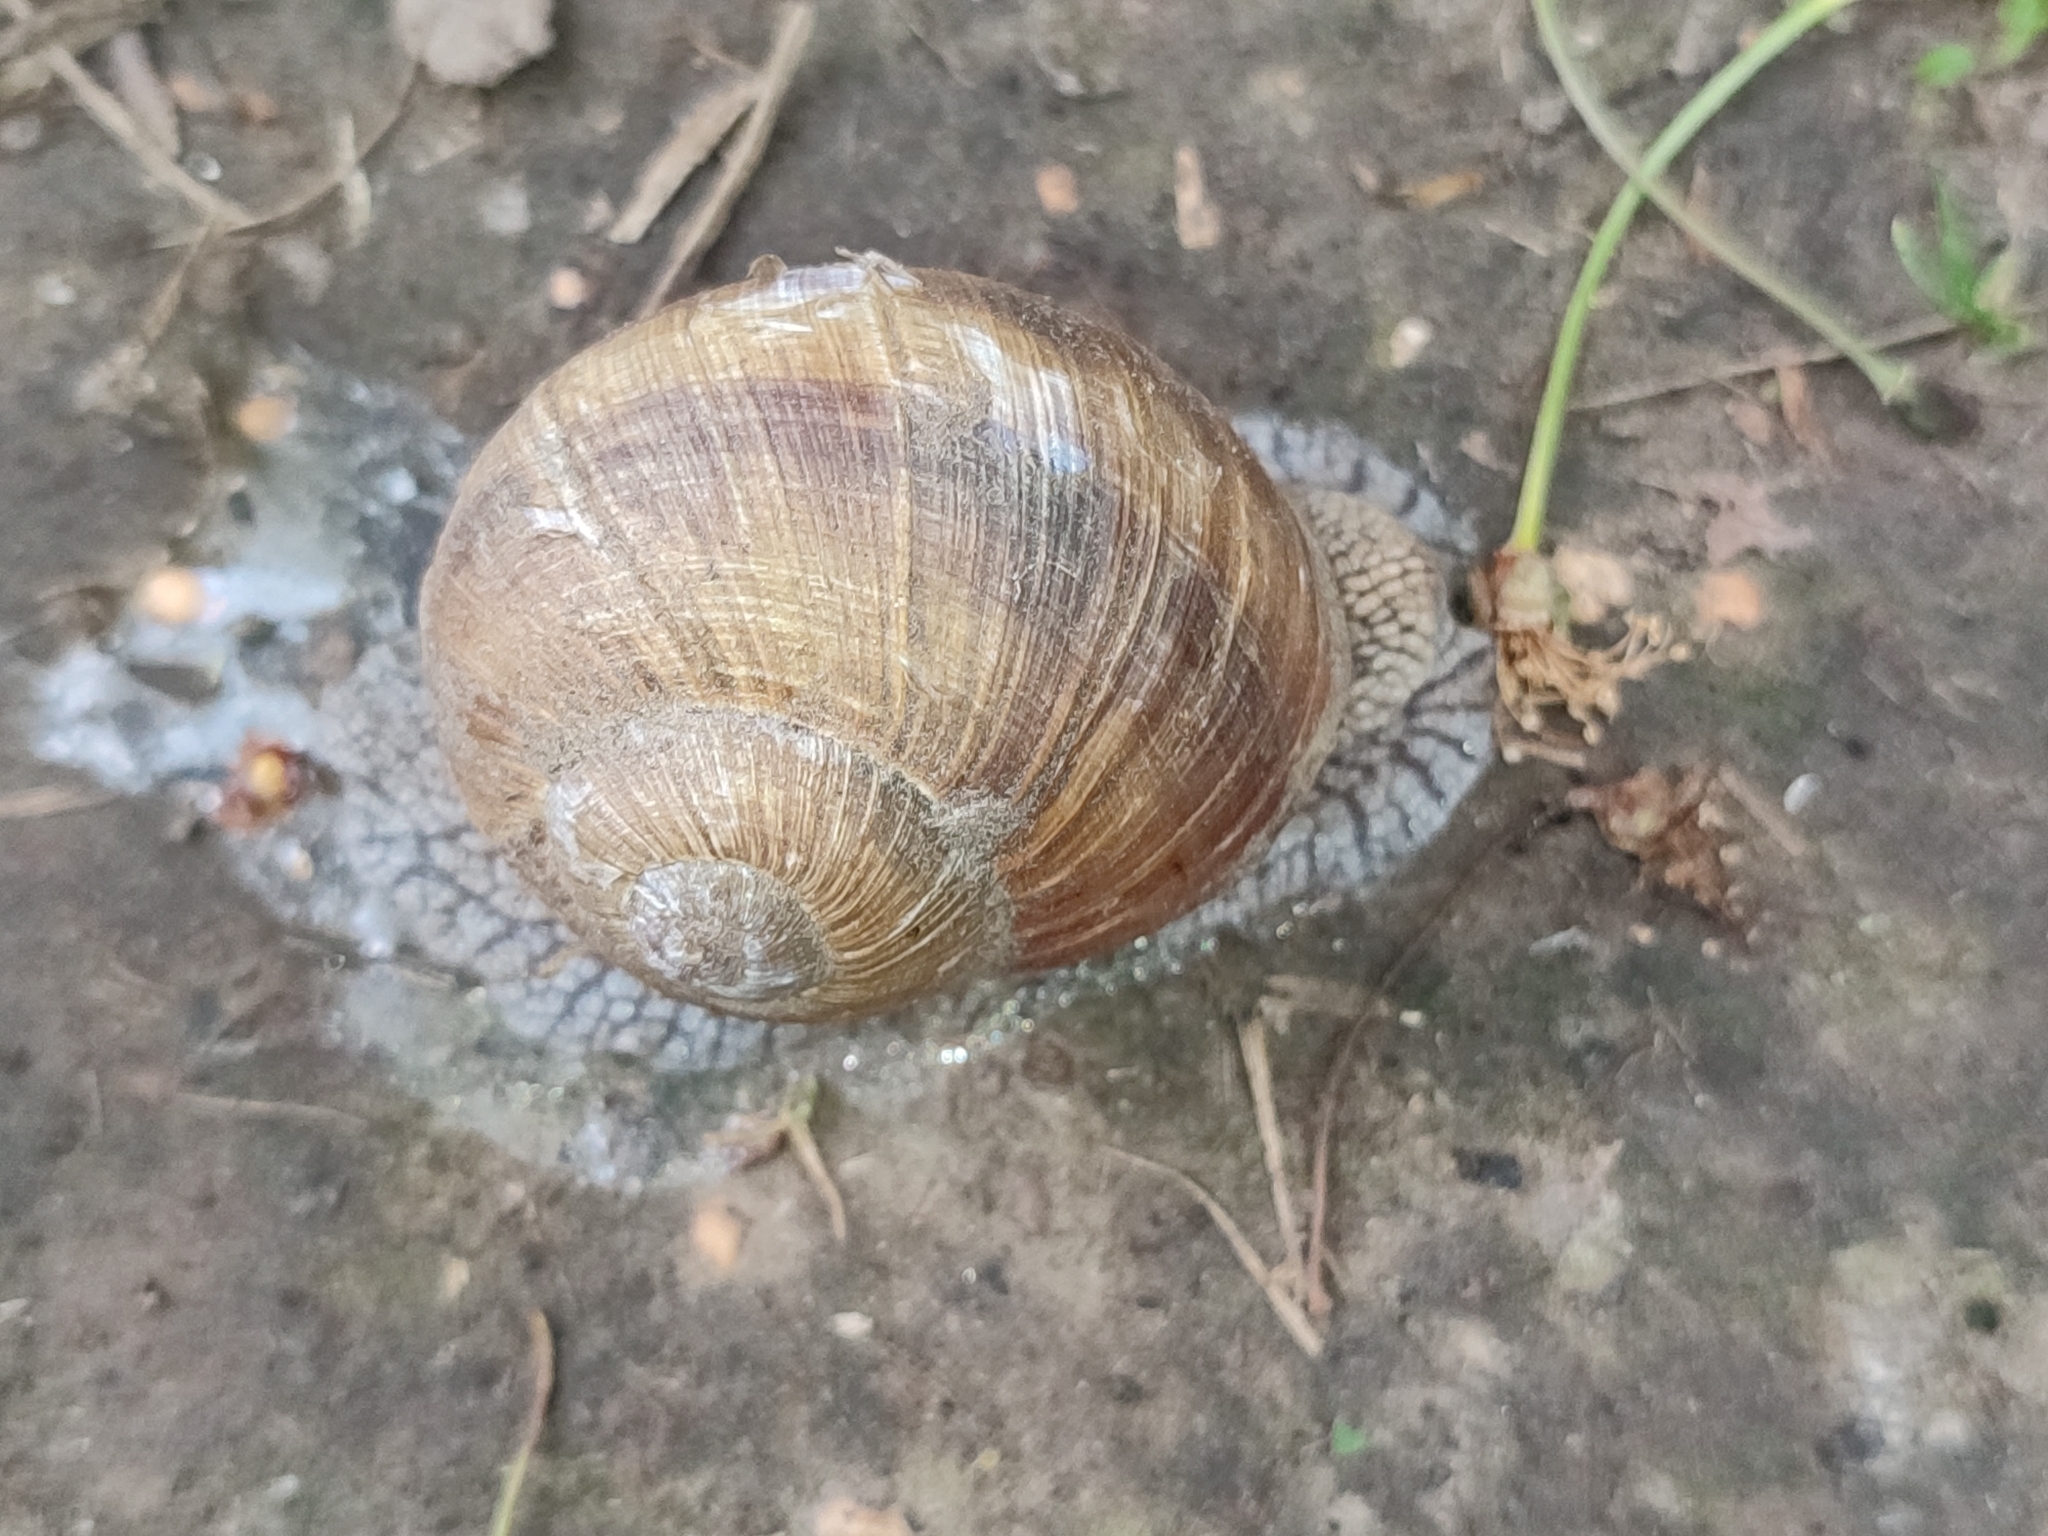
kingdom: Animalia
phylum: Mollusca
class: Gastropoda
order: Stylommatophora
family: Helicidae
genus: Helix
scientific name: Helix pomatia
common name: Roman snail
